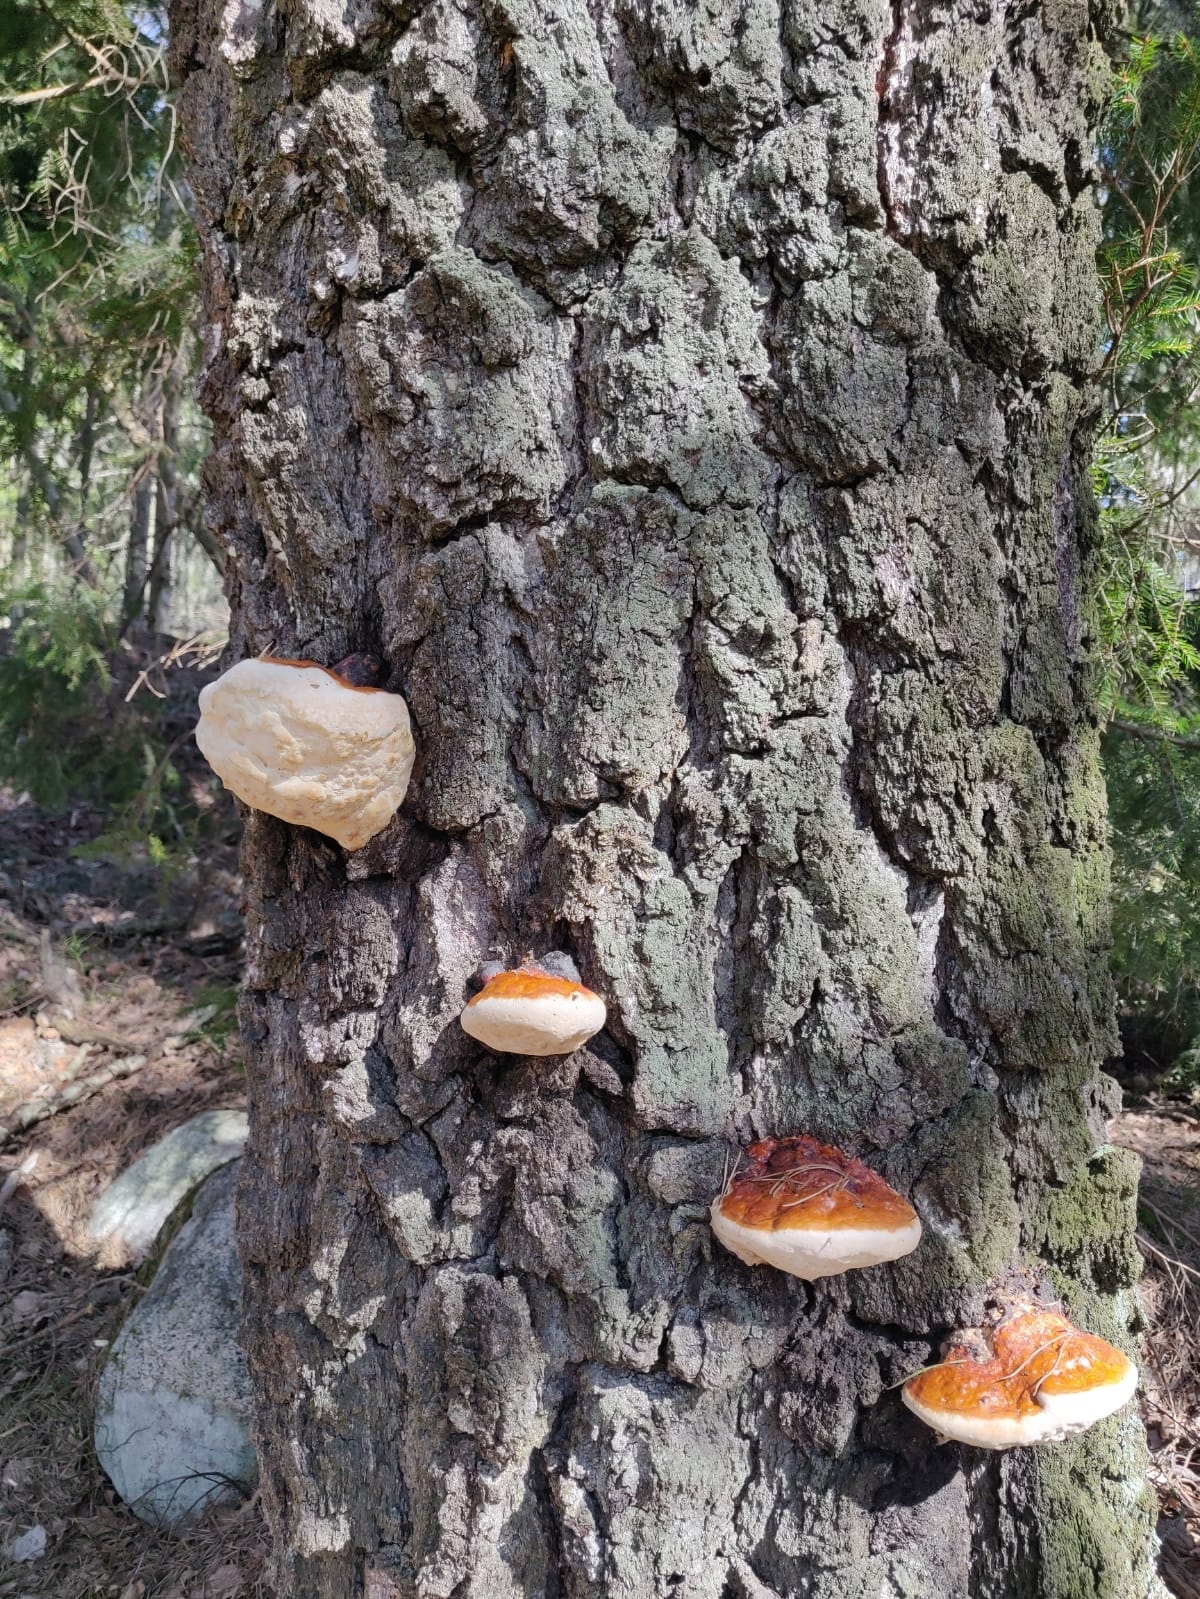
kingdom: Fungi
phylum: Basidiomycota
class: Agaricomycetes
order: Polyporales
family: Fomitopsidaceae
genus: Fomitopsis
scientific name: Fomitopsis pinicola
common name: Red-belted bracket
